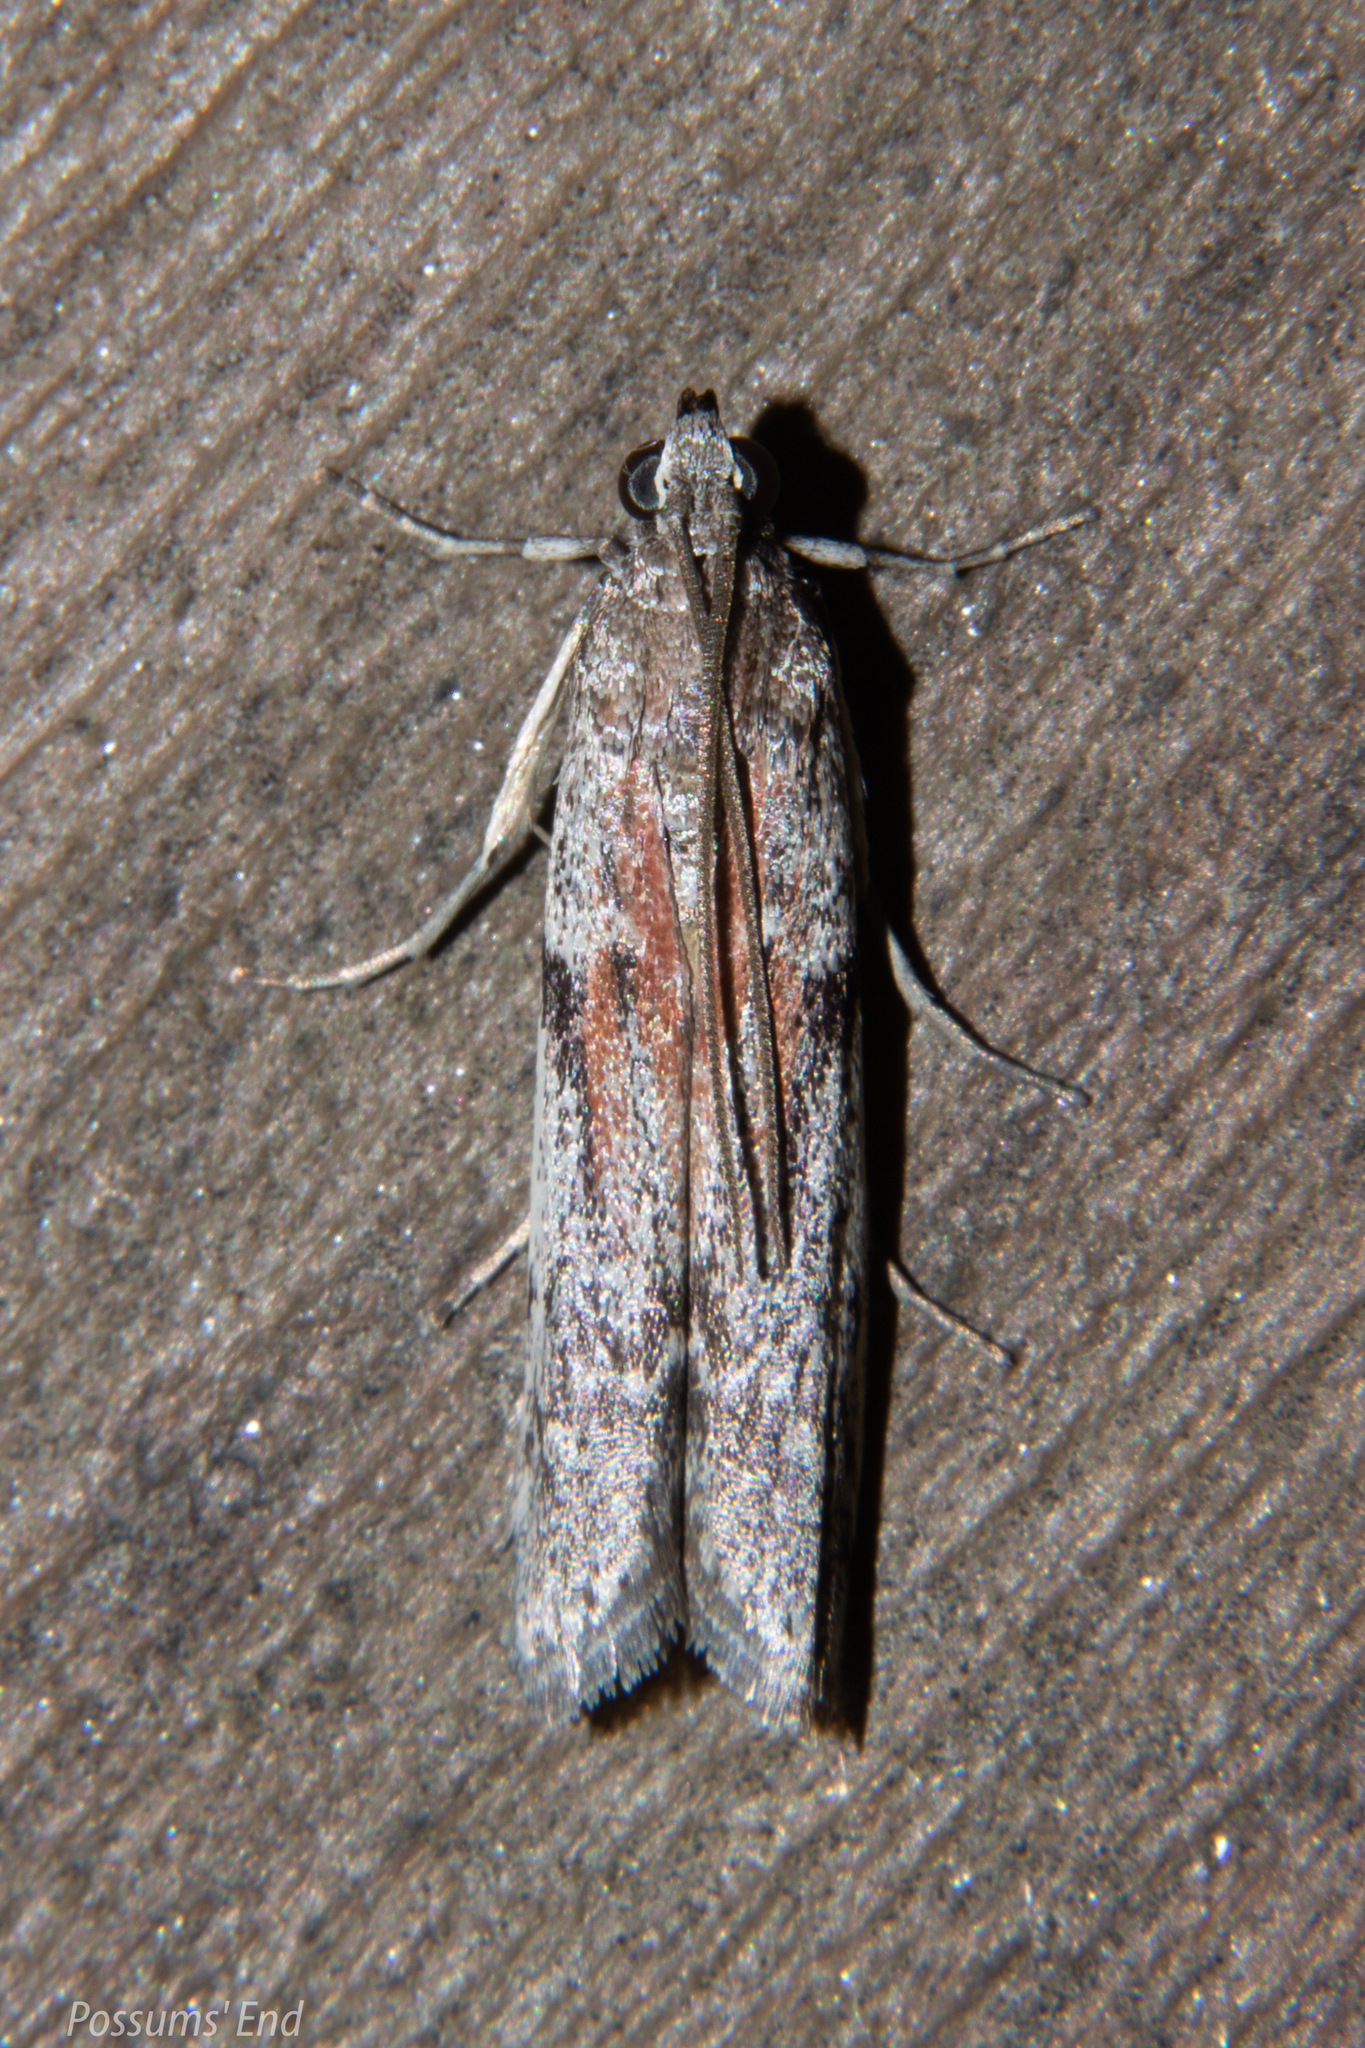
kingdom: Animalia
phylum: Arthropoda
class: Insecta
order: Lepidoptera
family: Pyralidae
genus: Patagoniodes
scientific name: Patagoniodes farinaria
